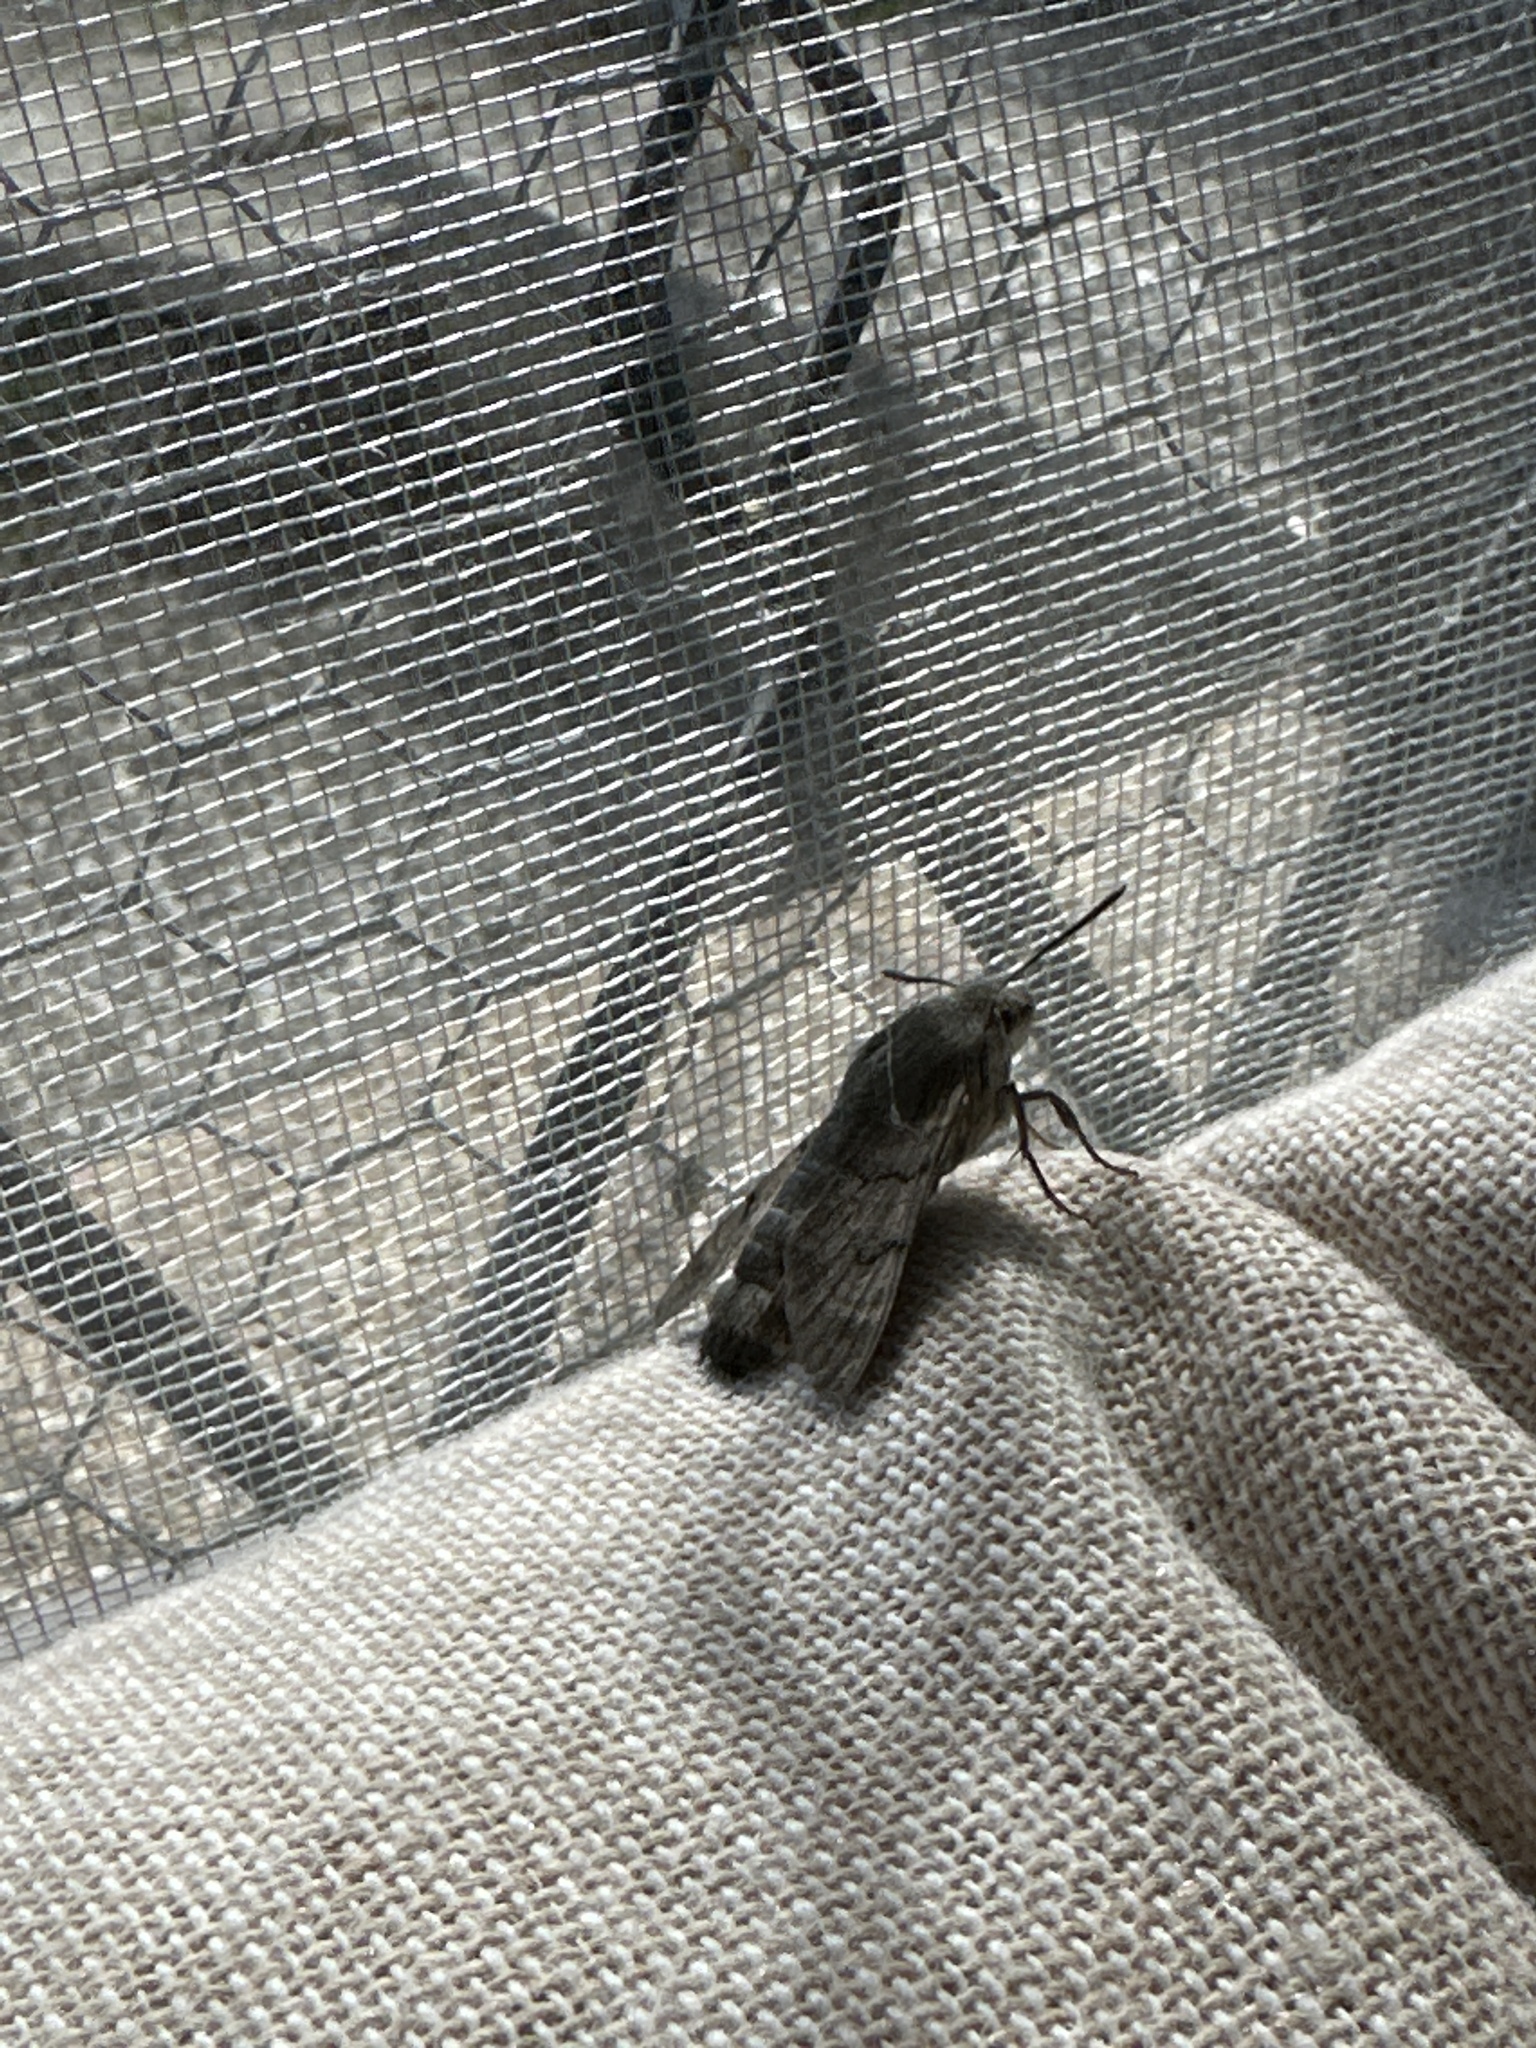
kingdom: Animalia
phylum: Arthropoda
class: Insecta
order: Lepidoptera
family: Sphingidae
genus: Macroglossum
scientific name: Macroglossum stellatarum
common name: Humming-bird hawk-moth
